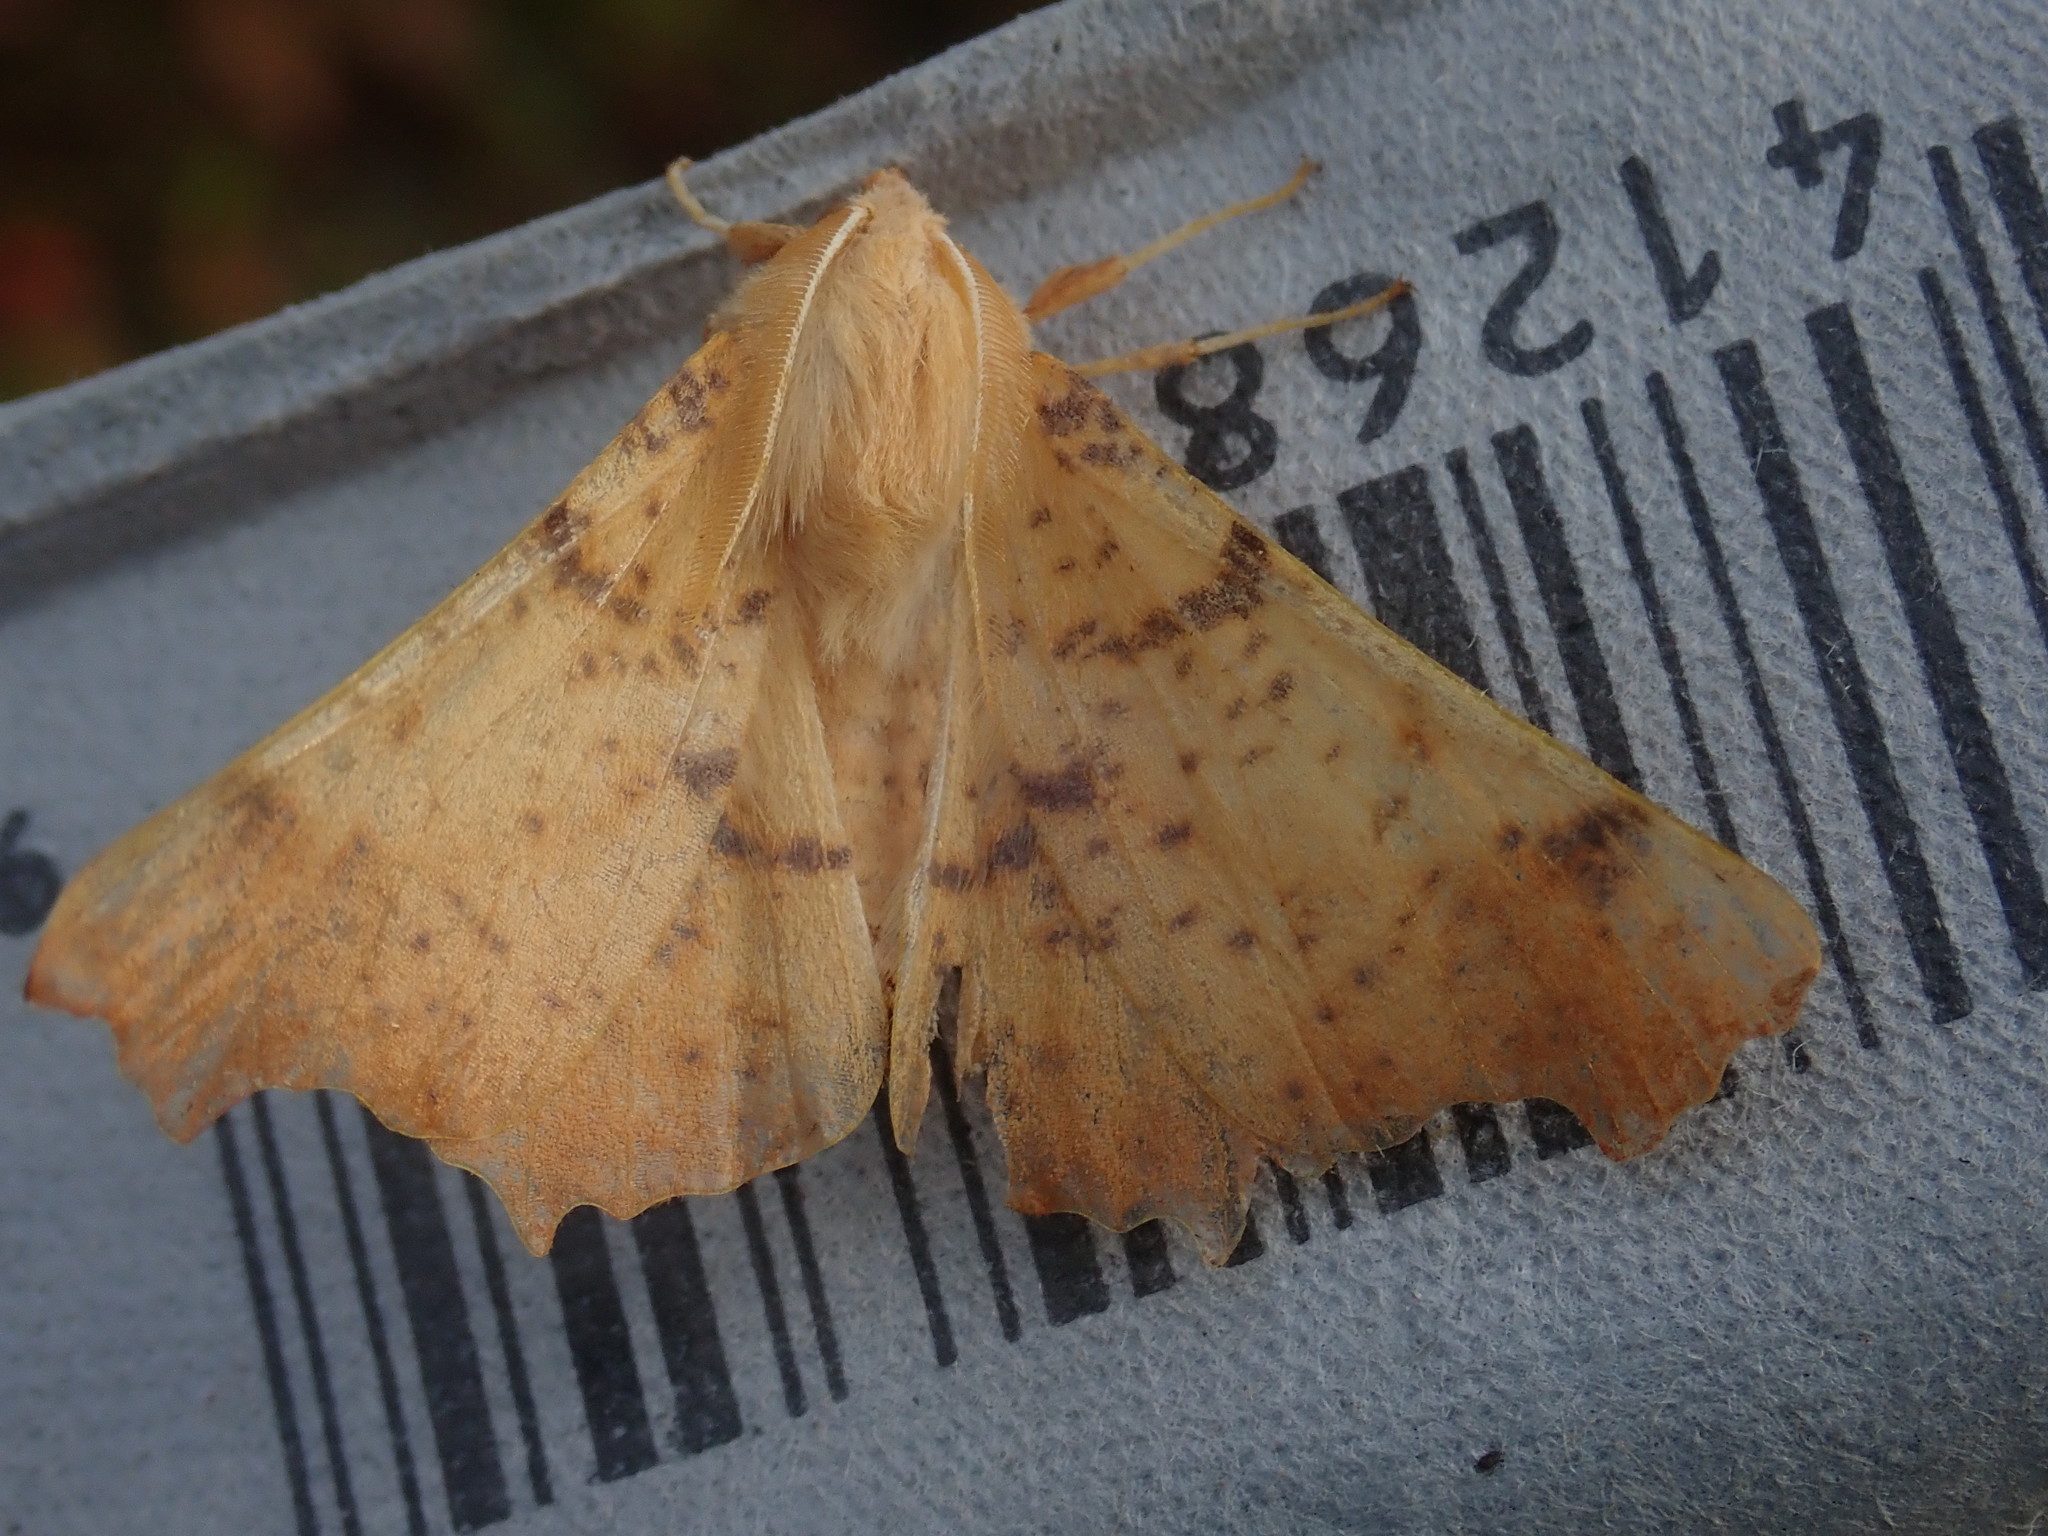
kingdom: Animalia
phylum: Arthropoda
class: Insecta
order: Lepidoptera
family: Geometridae
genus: Ennomos
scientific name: Ennomos magnaria
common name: Maple spanworm
